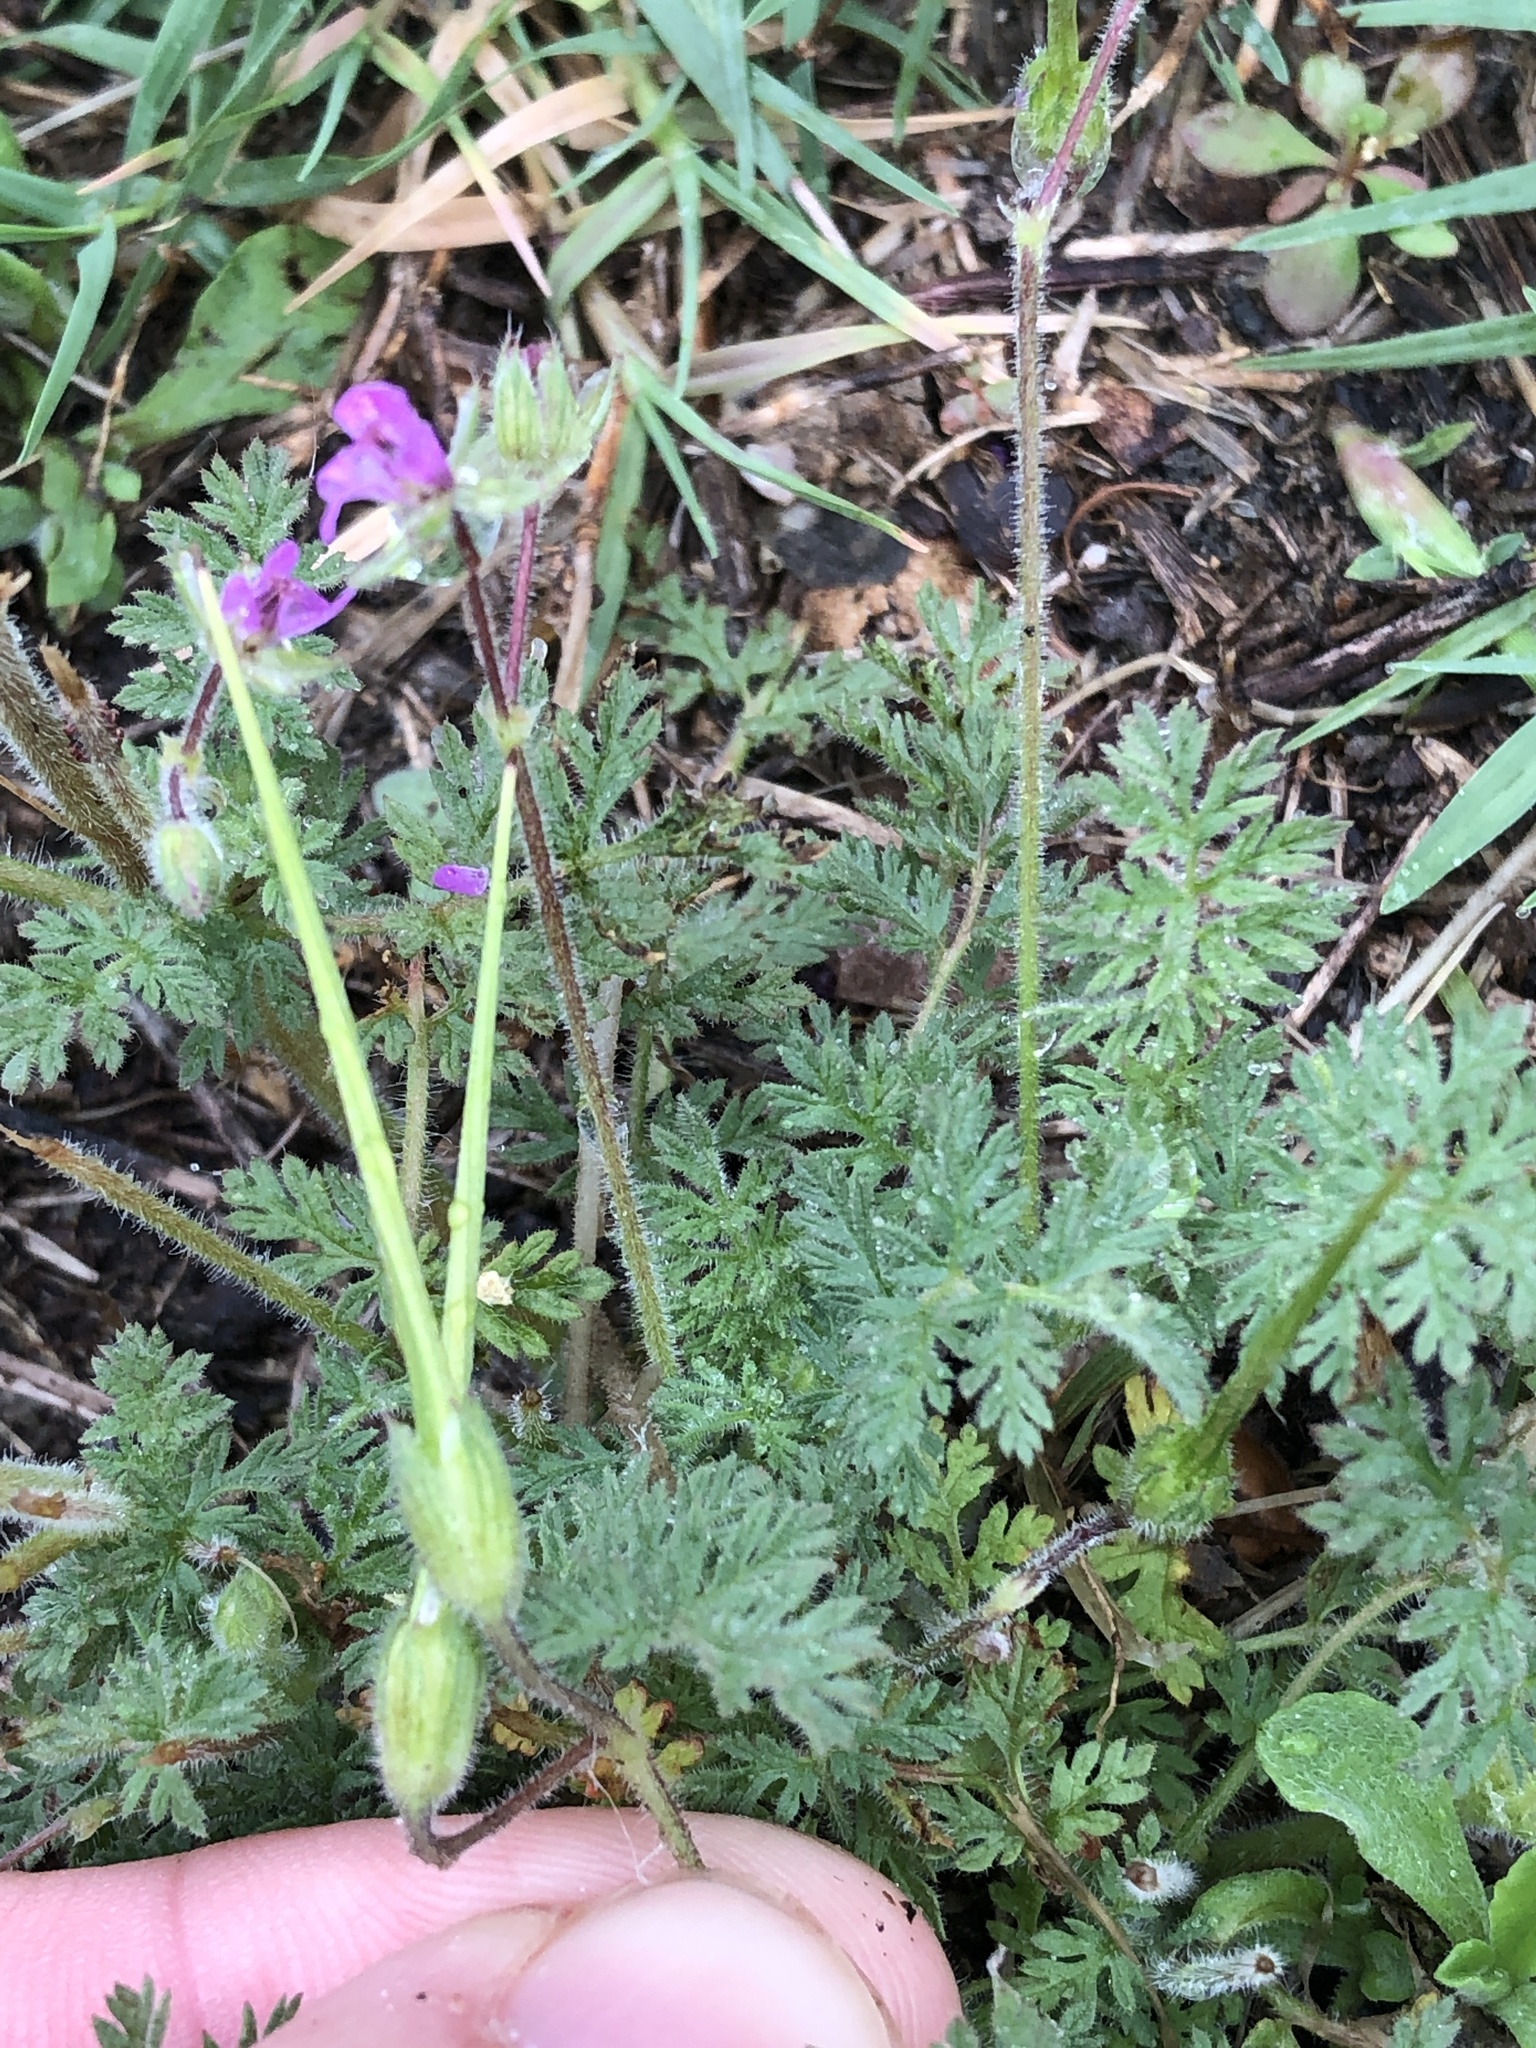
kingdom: Plantae
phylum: Tracheophyta
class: Magnoliopsida
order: Geraniales
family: Geraniaceae
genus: Erodium
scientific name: Erodium cicutarium
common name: Common stork's-bill
